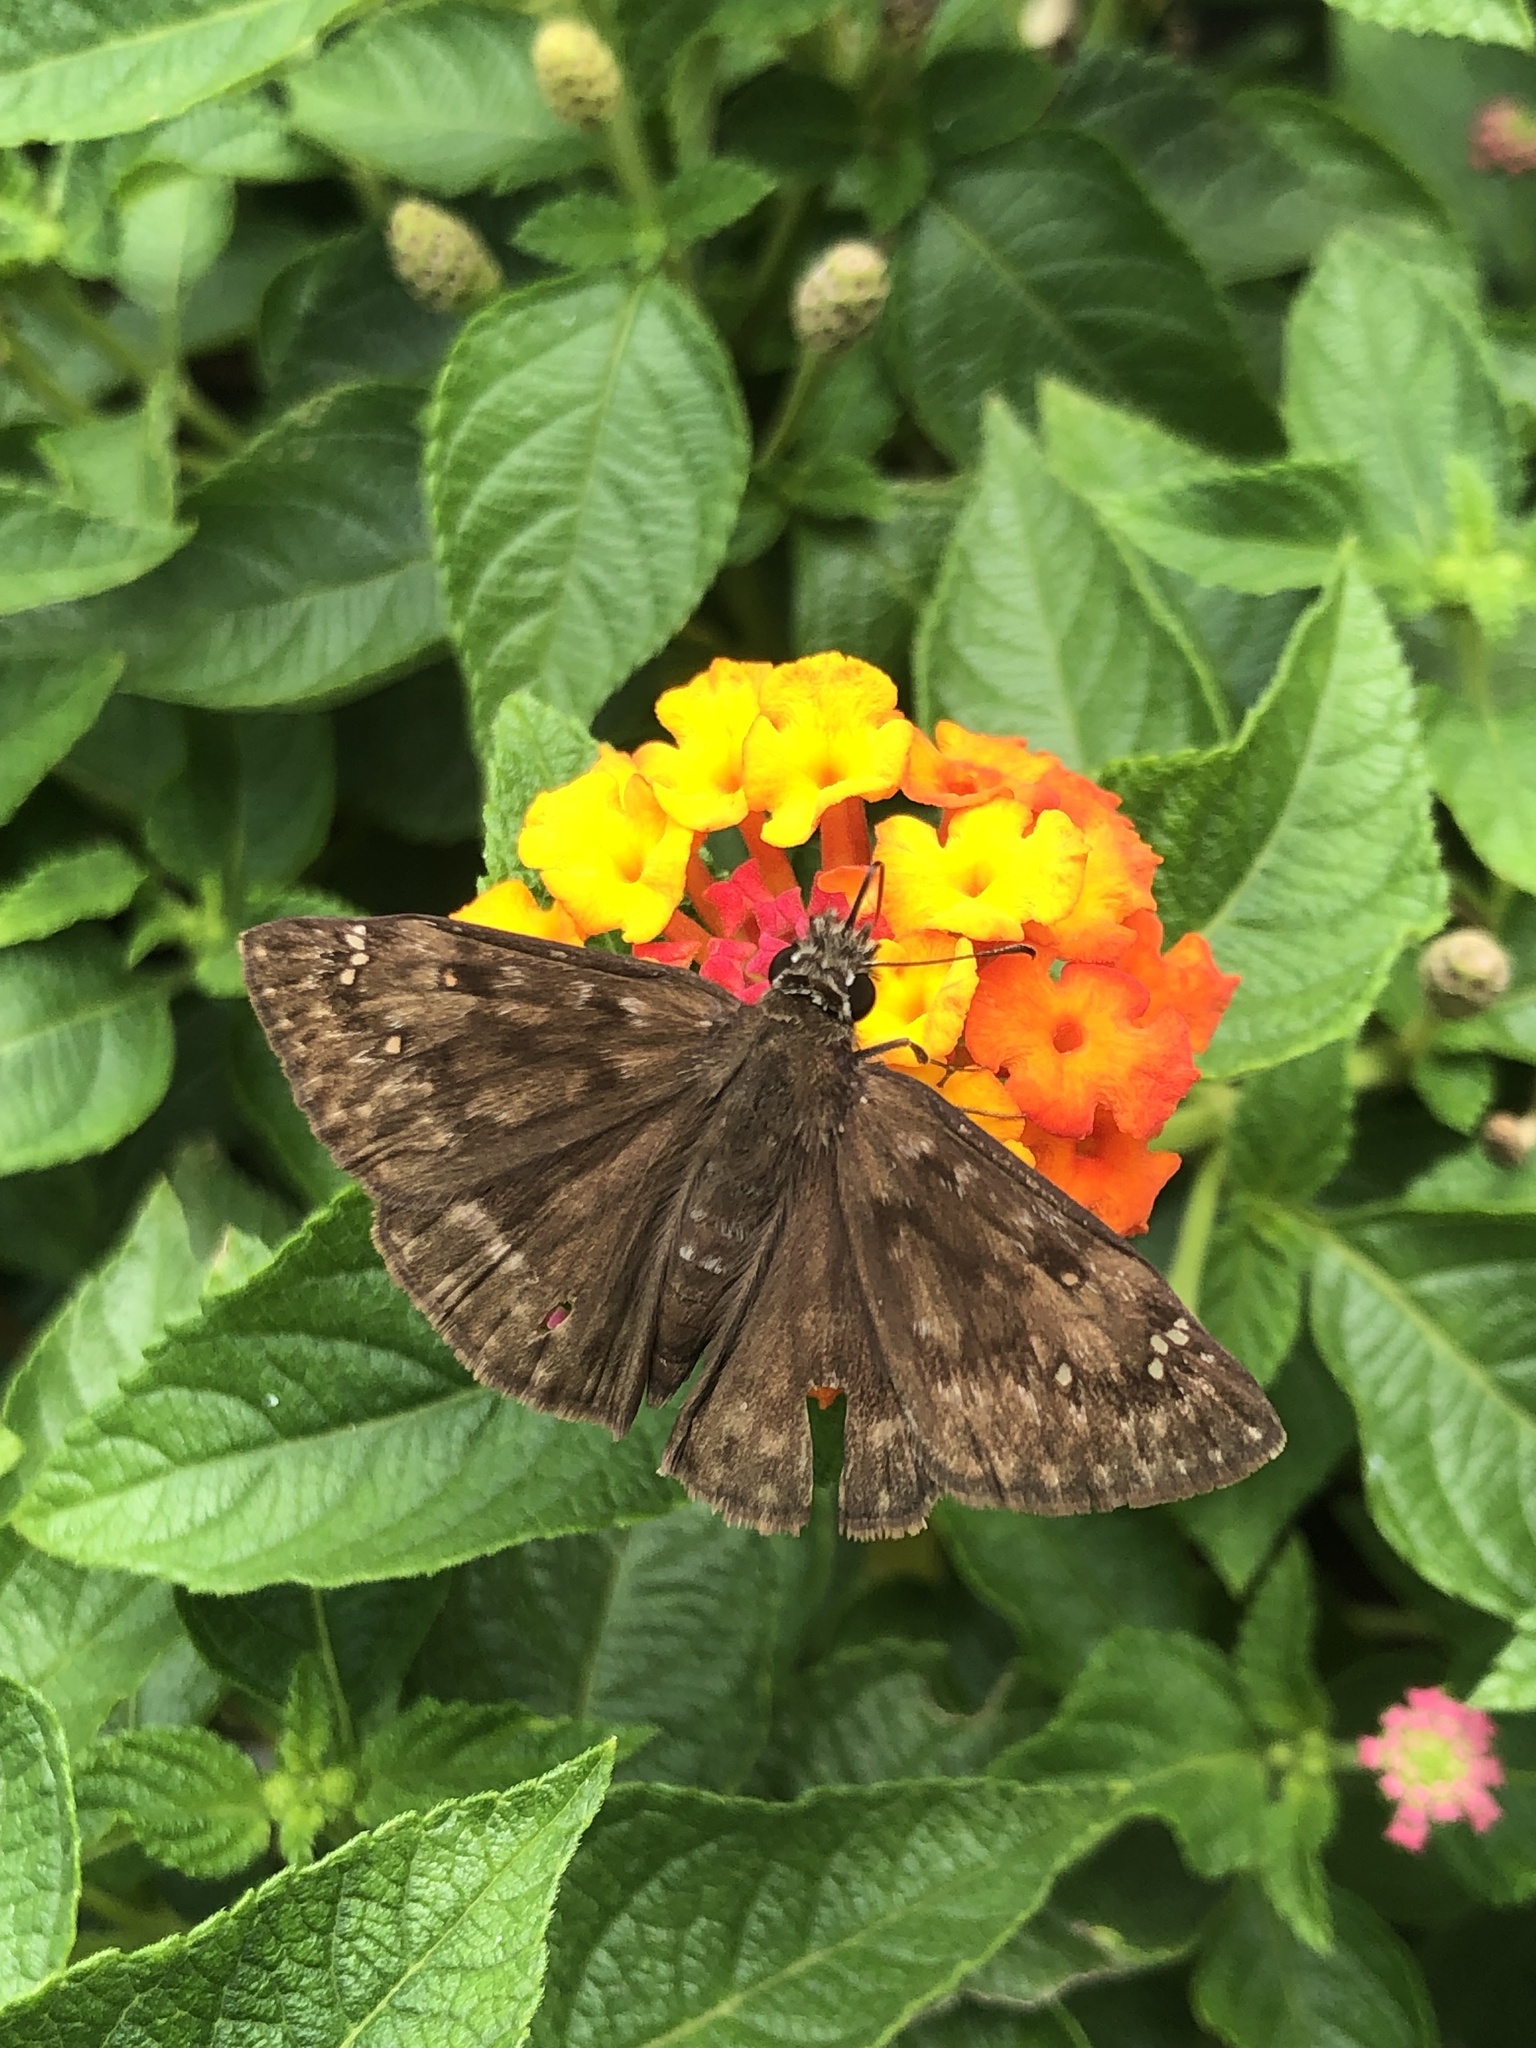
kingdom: Animalia
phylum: Arthropoda
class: Insecta
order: Lepidoptera
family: Hesperiidae
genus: Erynnis
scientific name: Erynnis horatius
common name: Horace's duskywing
